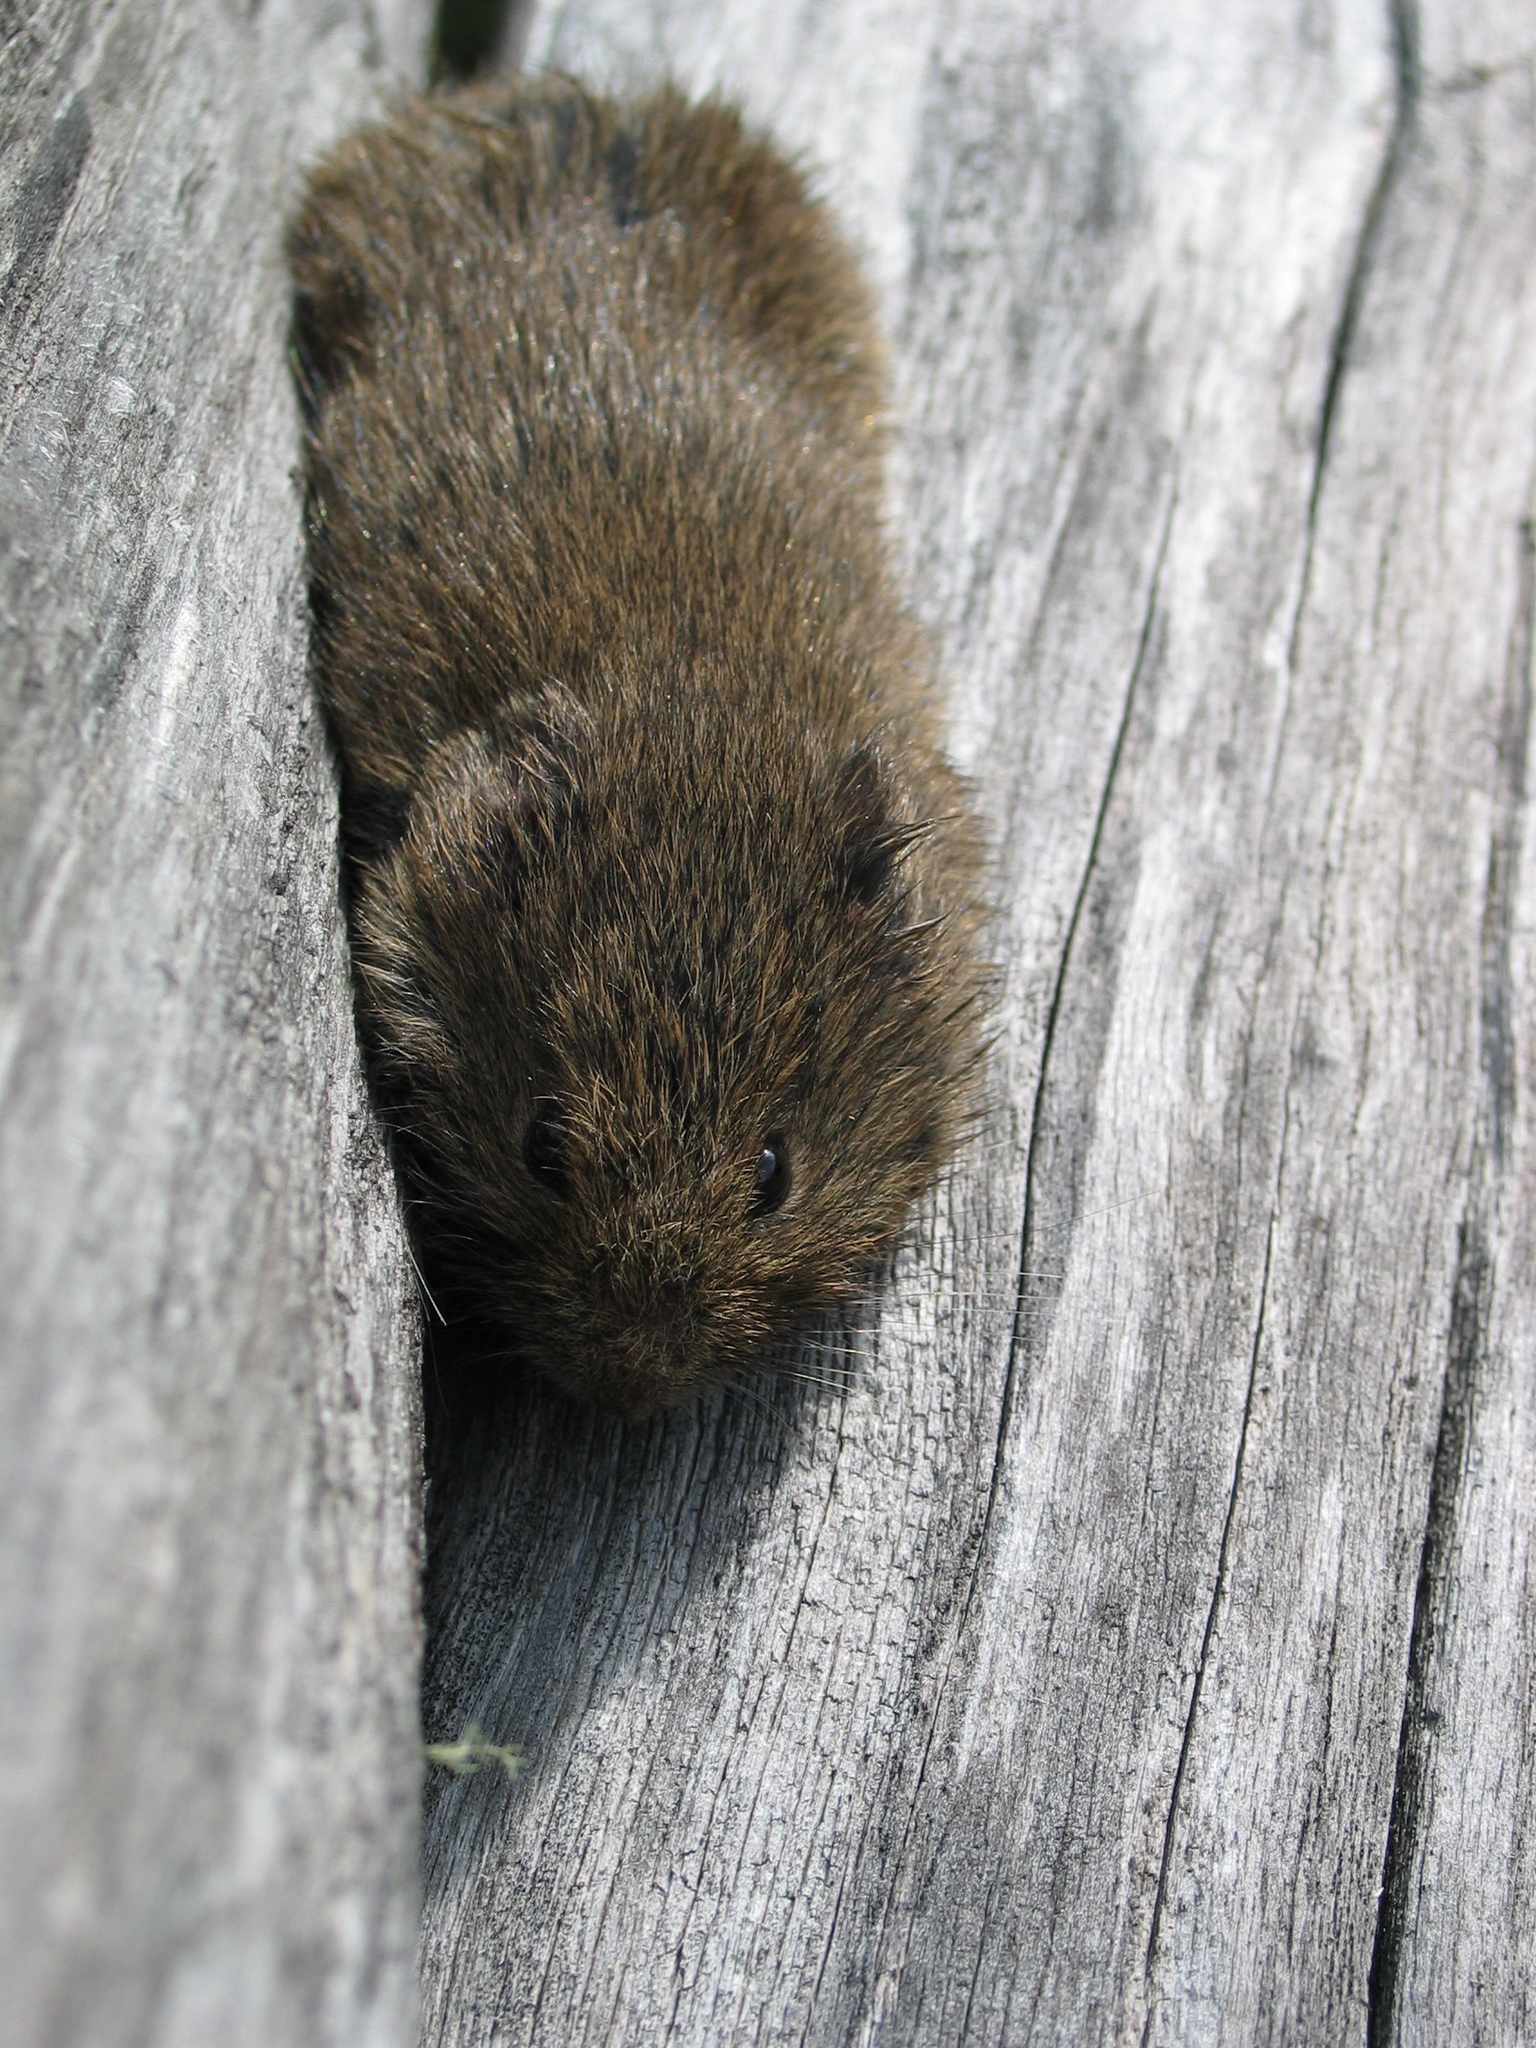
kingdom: Animalia
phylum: Chordata
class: Mammalia
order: Rodentia
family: Cricetidae
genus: Microtus
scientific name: Microtus mexicanus
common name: Mexican vole
